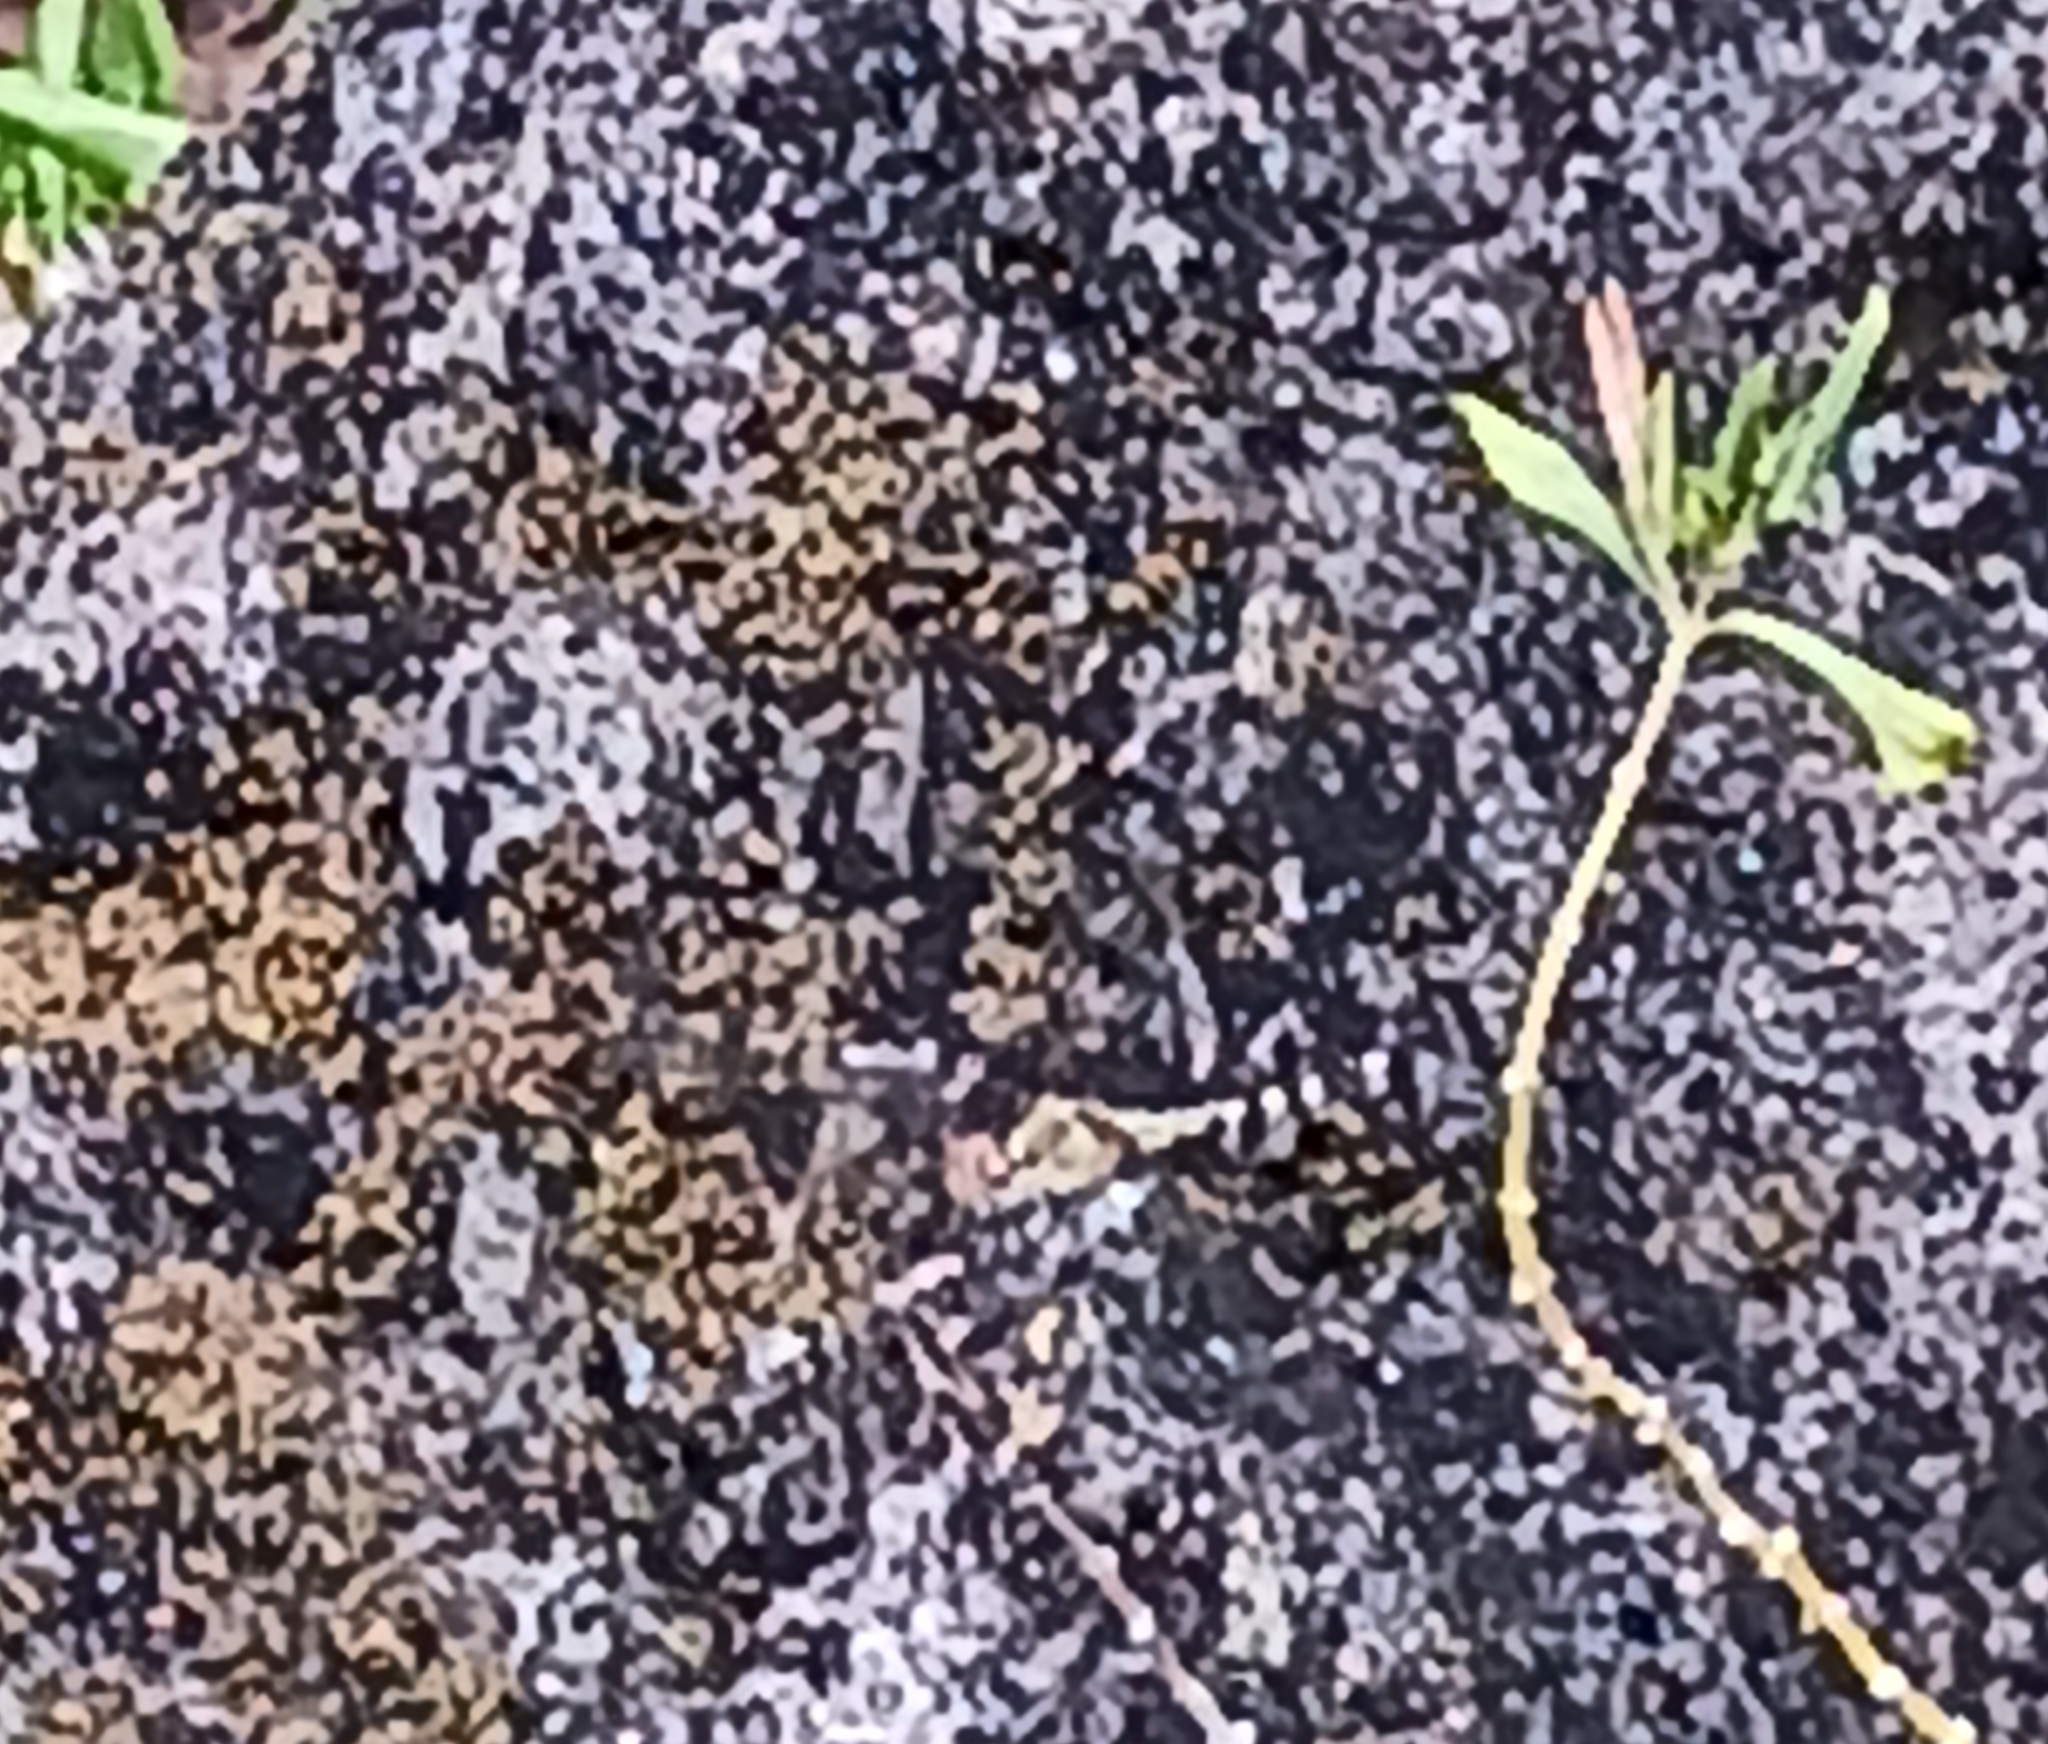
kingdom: Animalia
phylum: Arthropoda
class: Insecta
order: Odonata
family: Libellulidae
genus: Erythrodiplax
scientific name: Erythrodiplax umbrata
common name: Band-winged dragonlet
